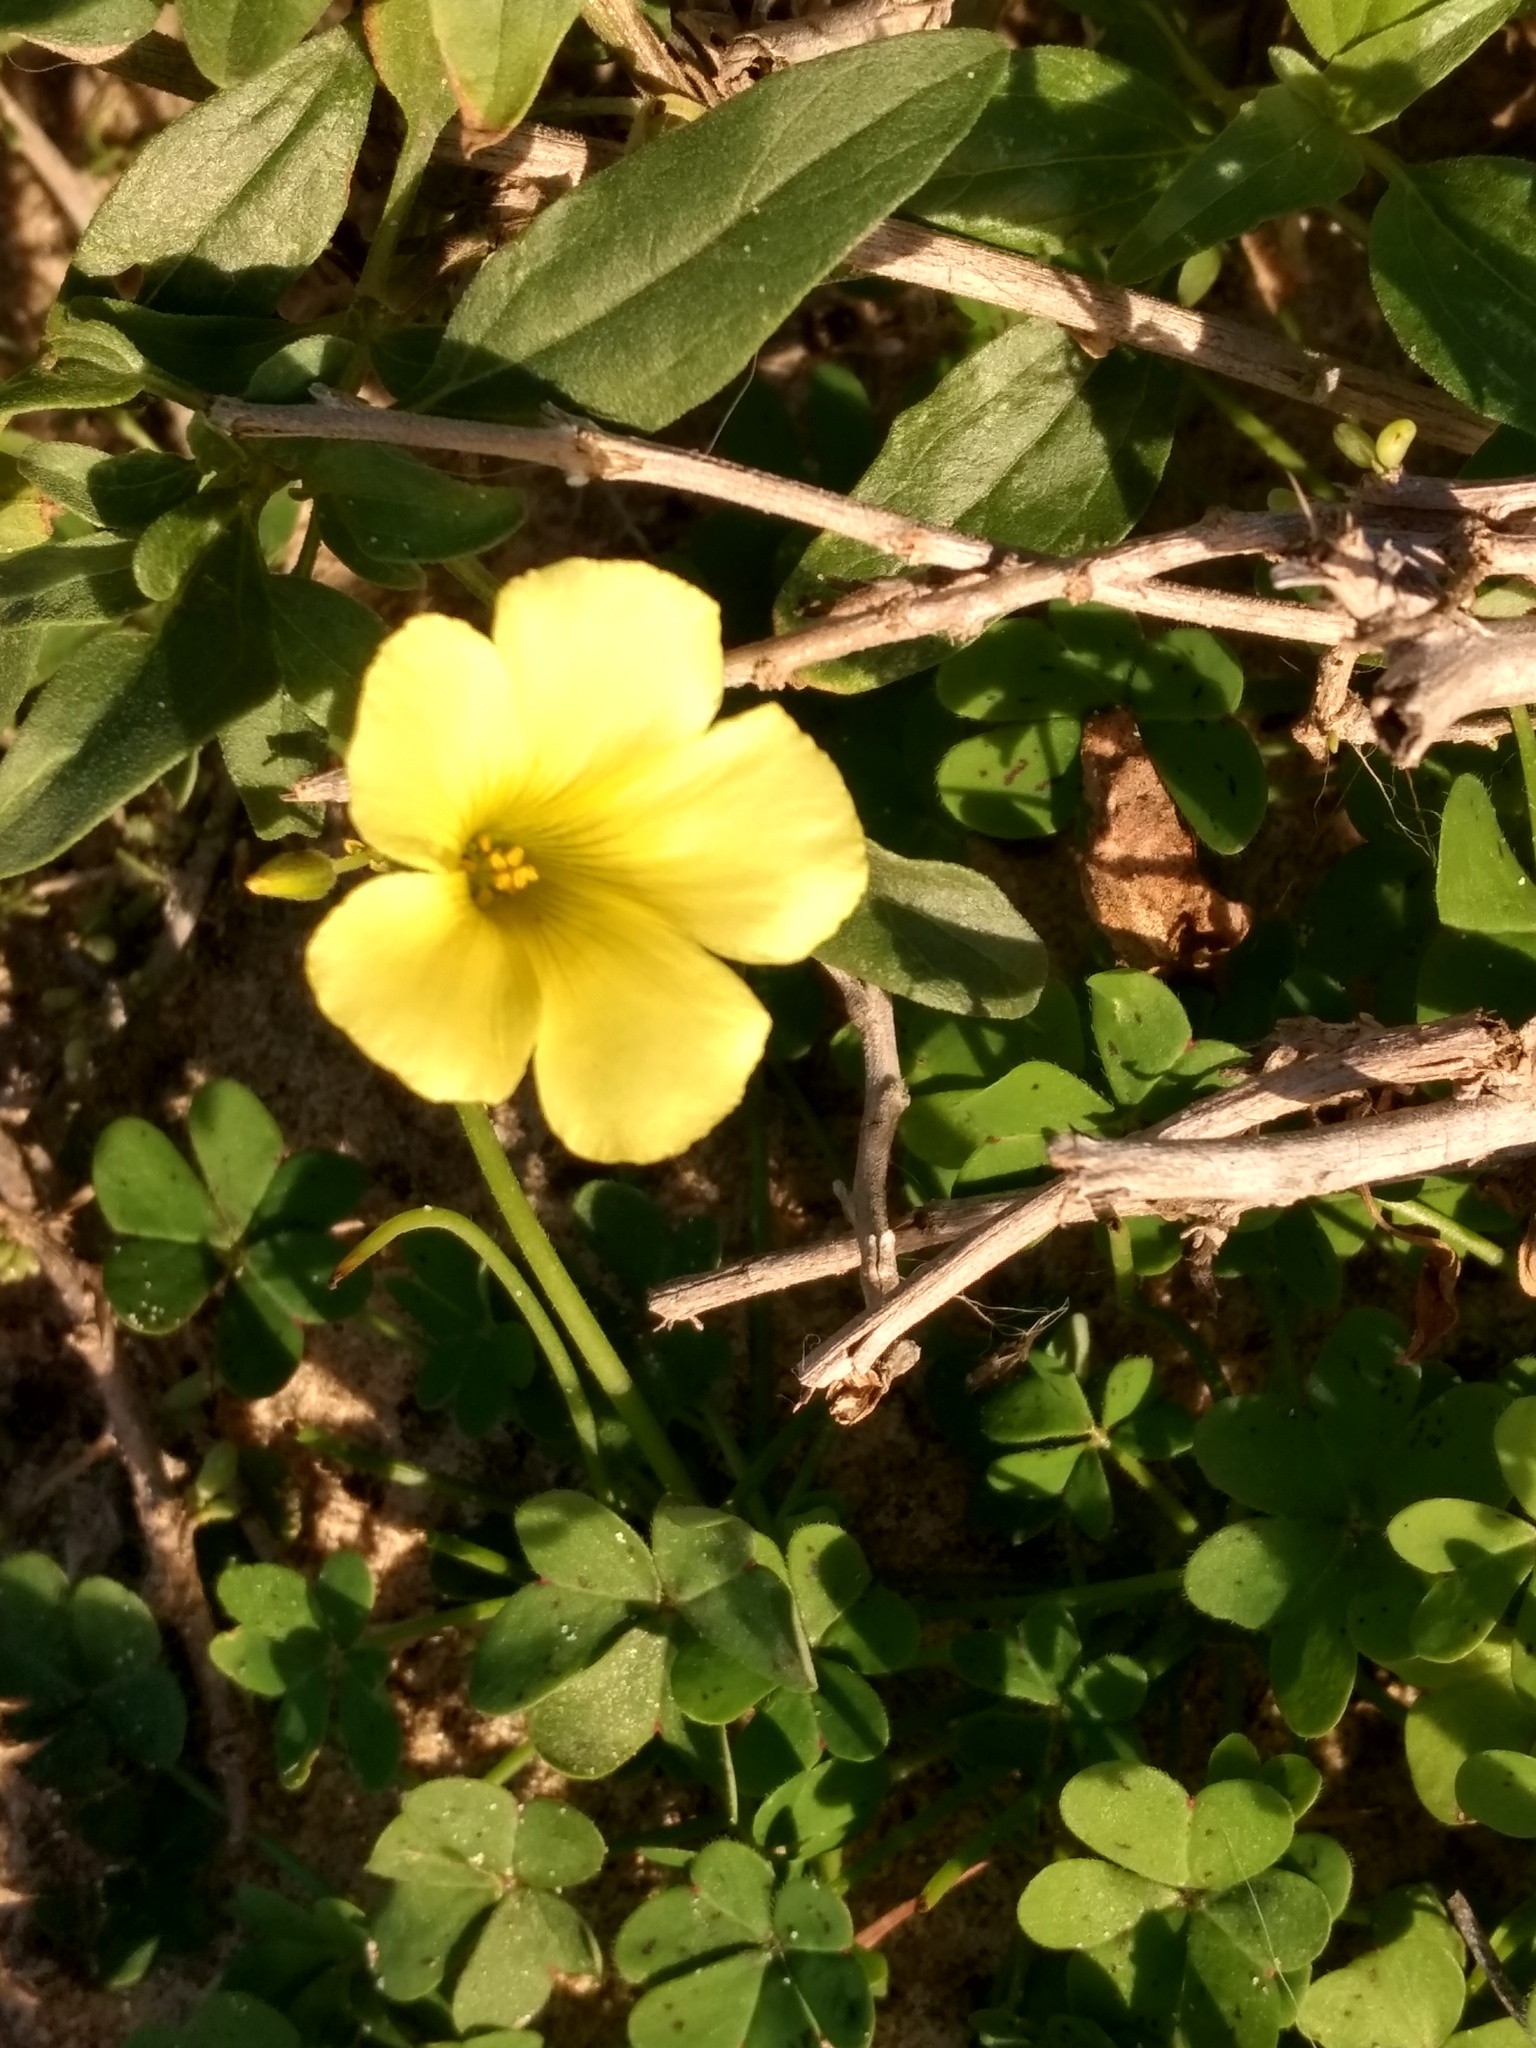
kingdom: Plantae
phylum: Tracheophyta
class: Magnoliopsida
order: Oxalidales
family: Oxalidaceae
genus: Oxalis
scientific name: Oxalis pes-caprae
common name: Bermuda-buttercup
